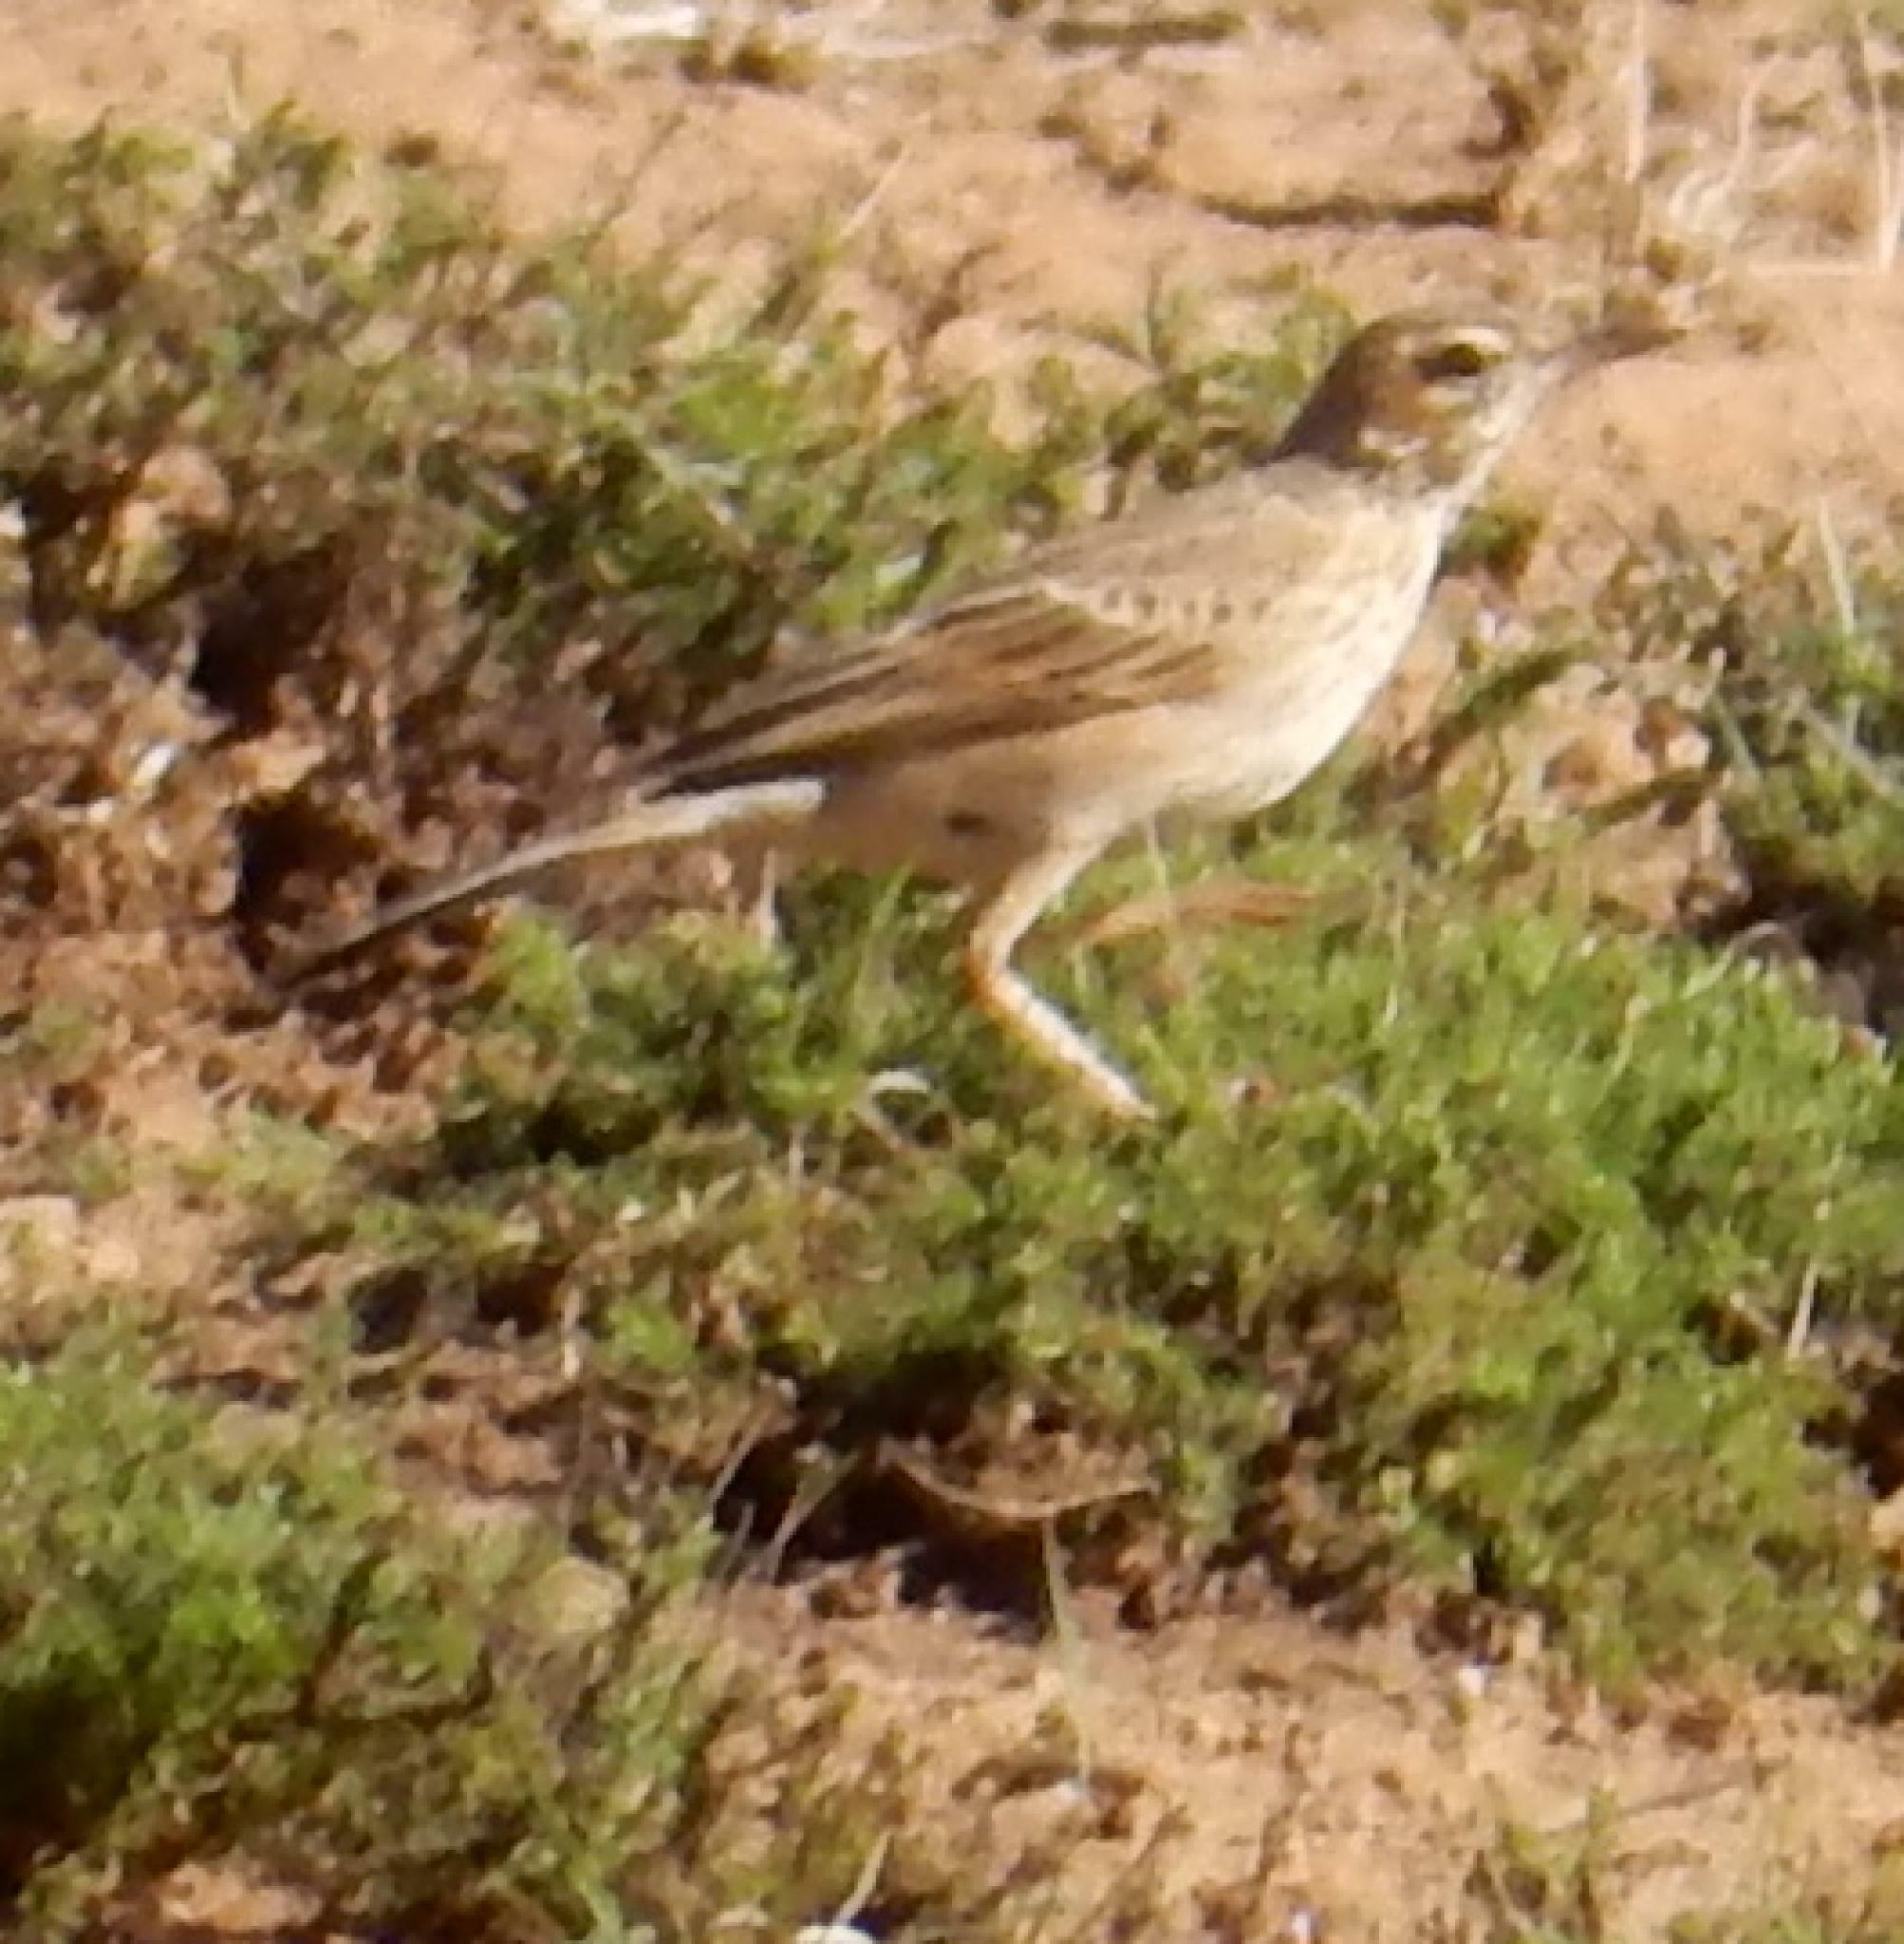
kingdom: Animalia
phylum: Chordata
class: Aves
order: Passeriformes
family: Motacillidae
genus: Anthus
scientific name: Anthus nicholsoni
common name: Nicholson's pipit
